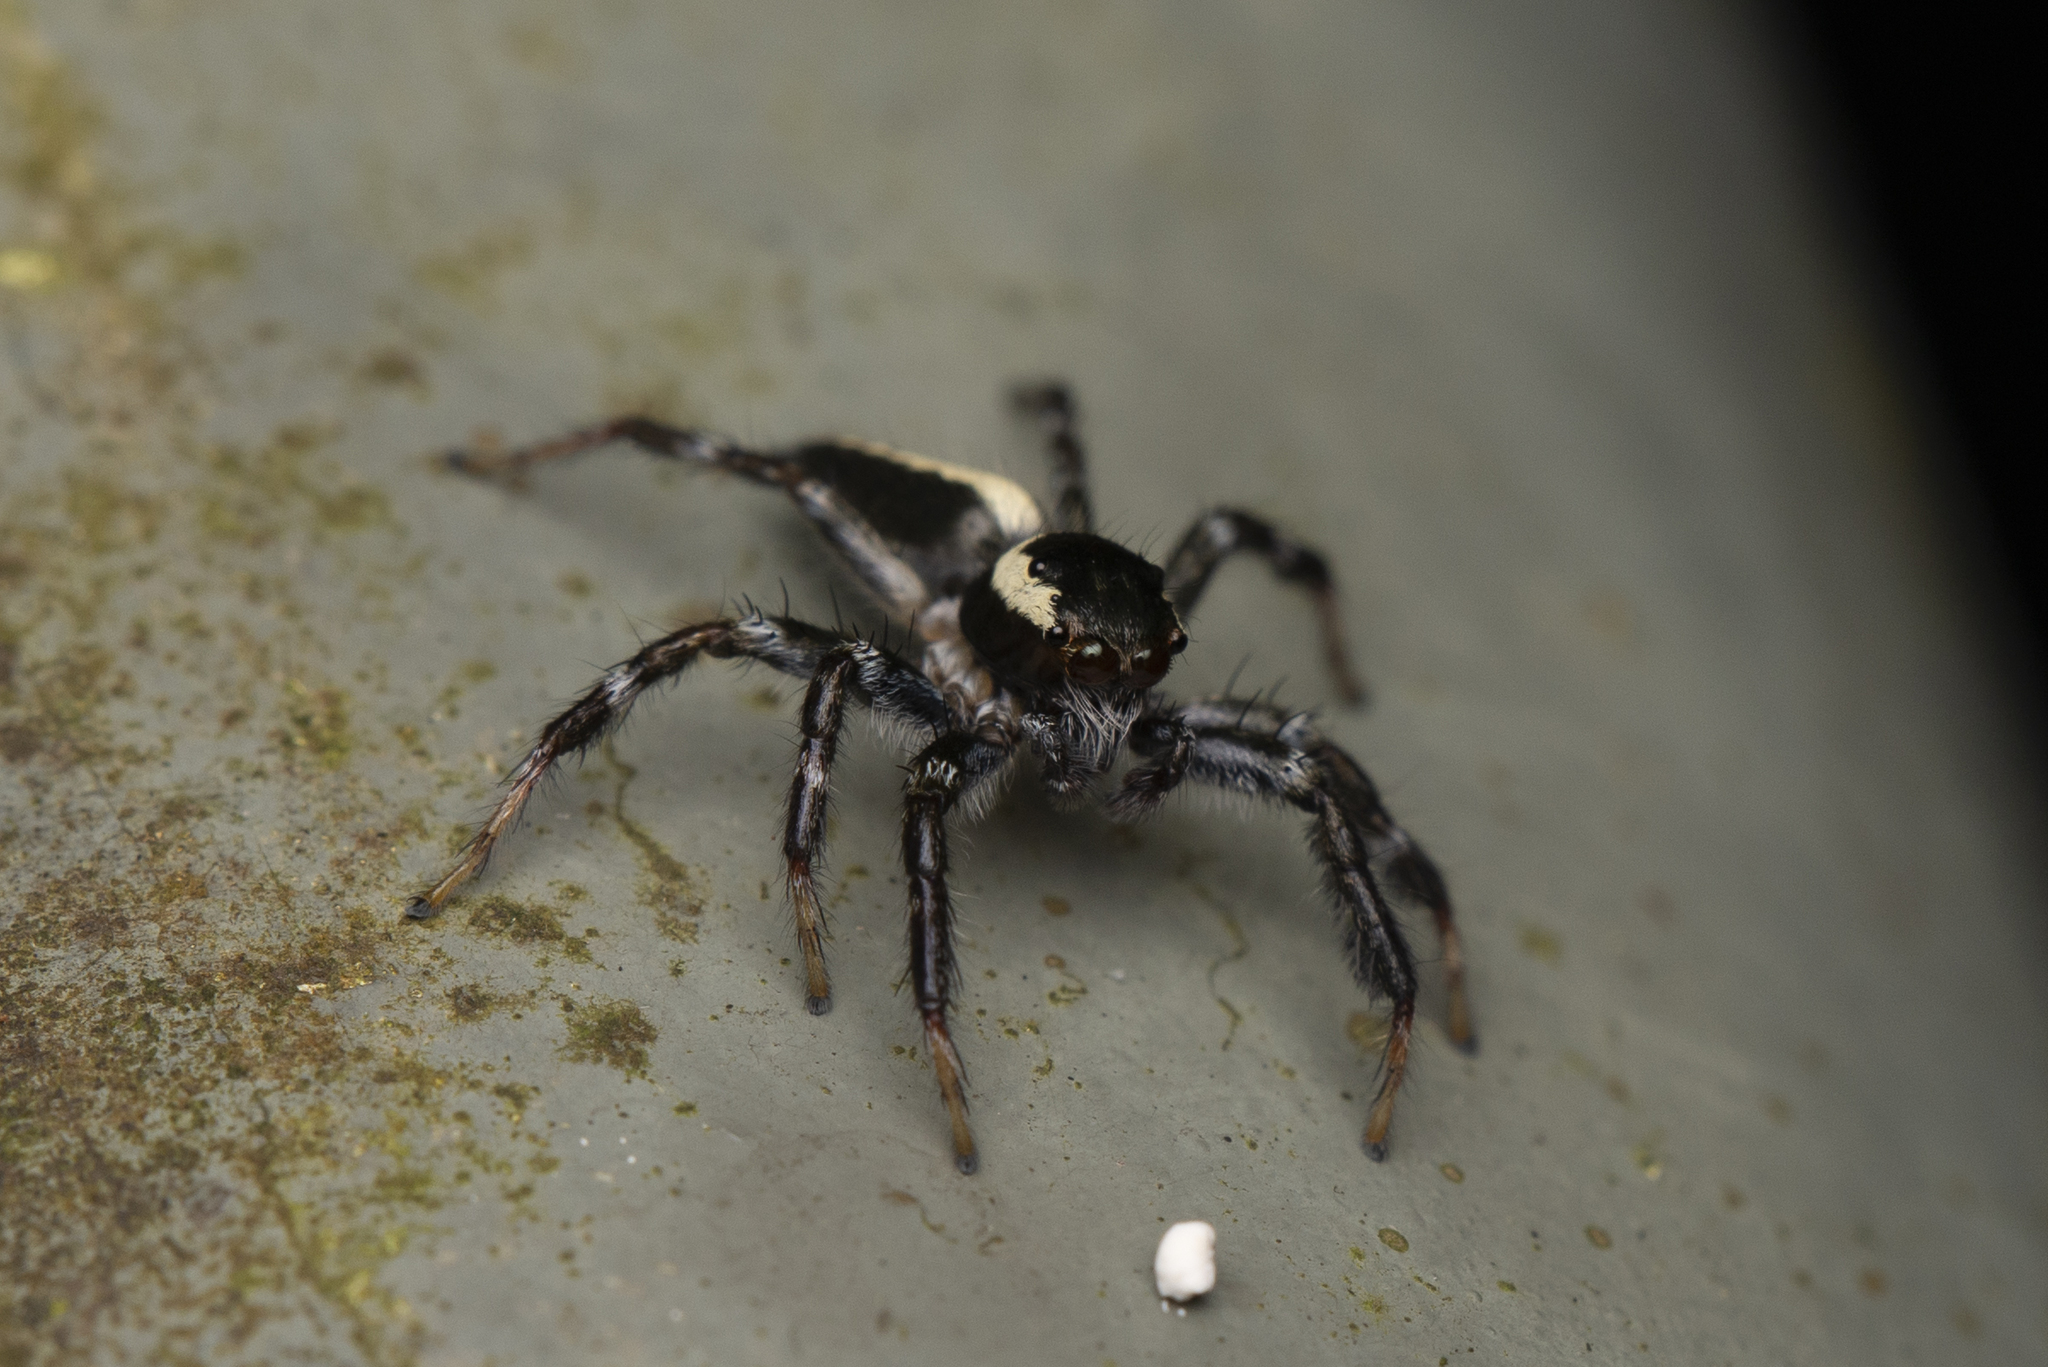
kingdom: Animalia
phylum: Arthropoda
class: Arachnida
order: Araneae
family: Salticidae
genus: Telamonia
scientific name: Telamonia caprina
